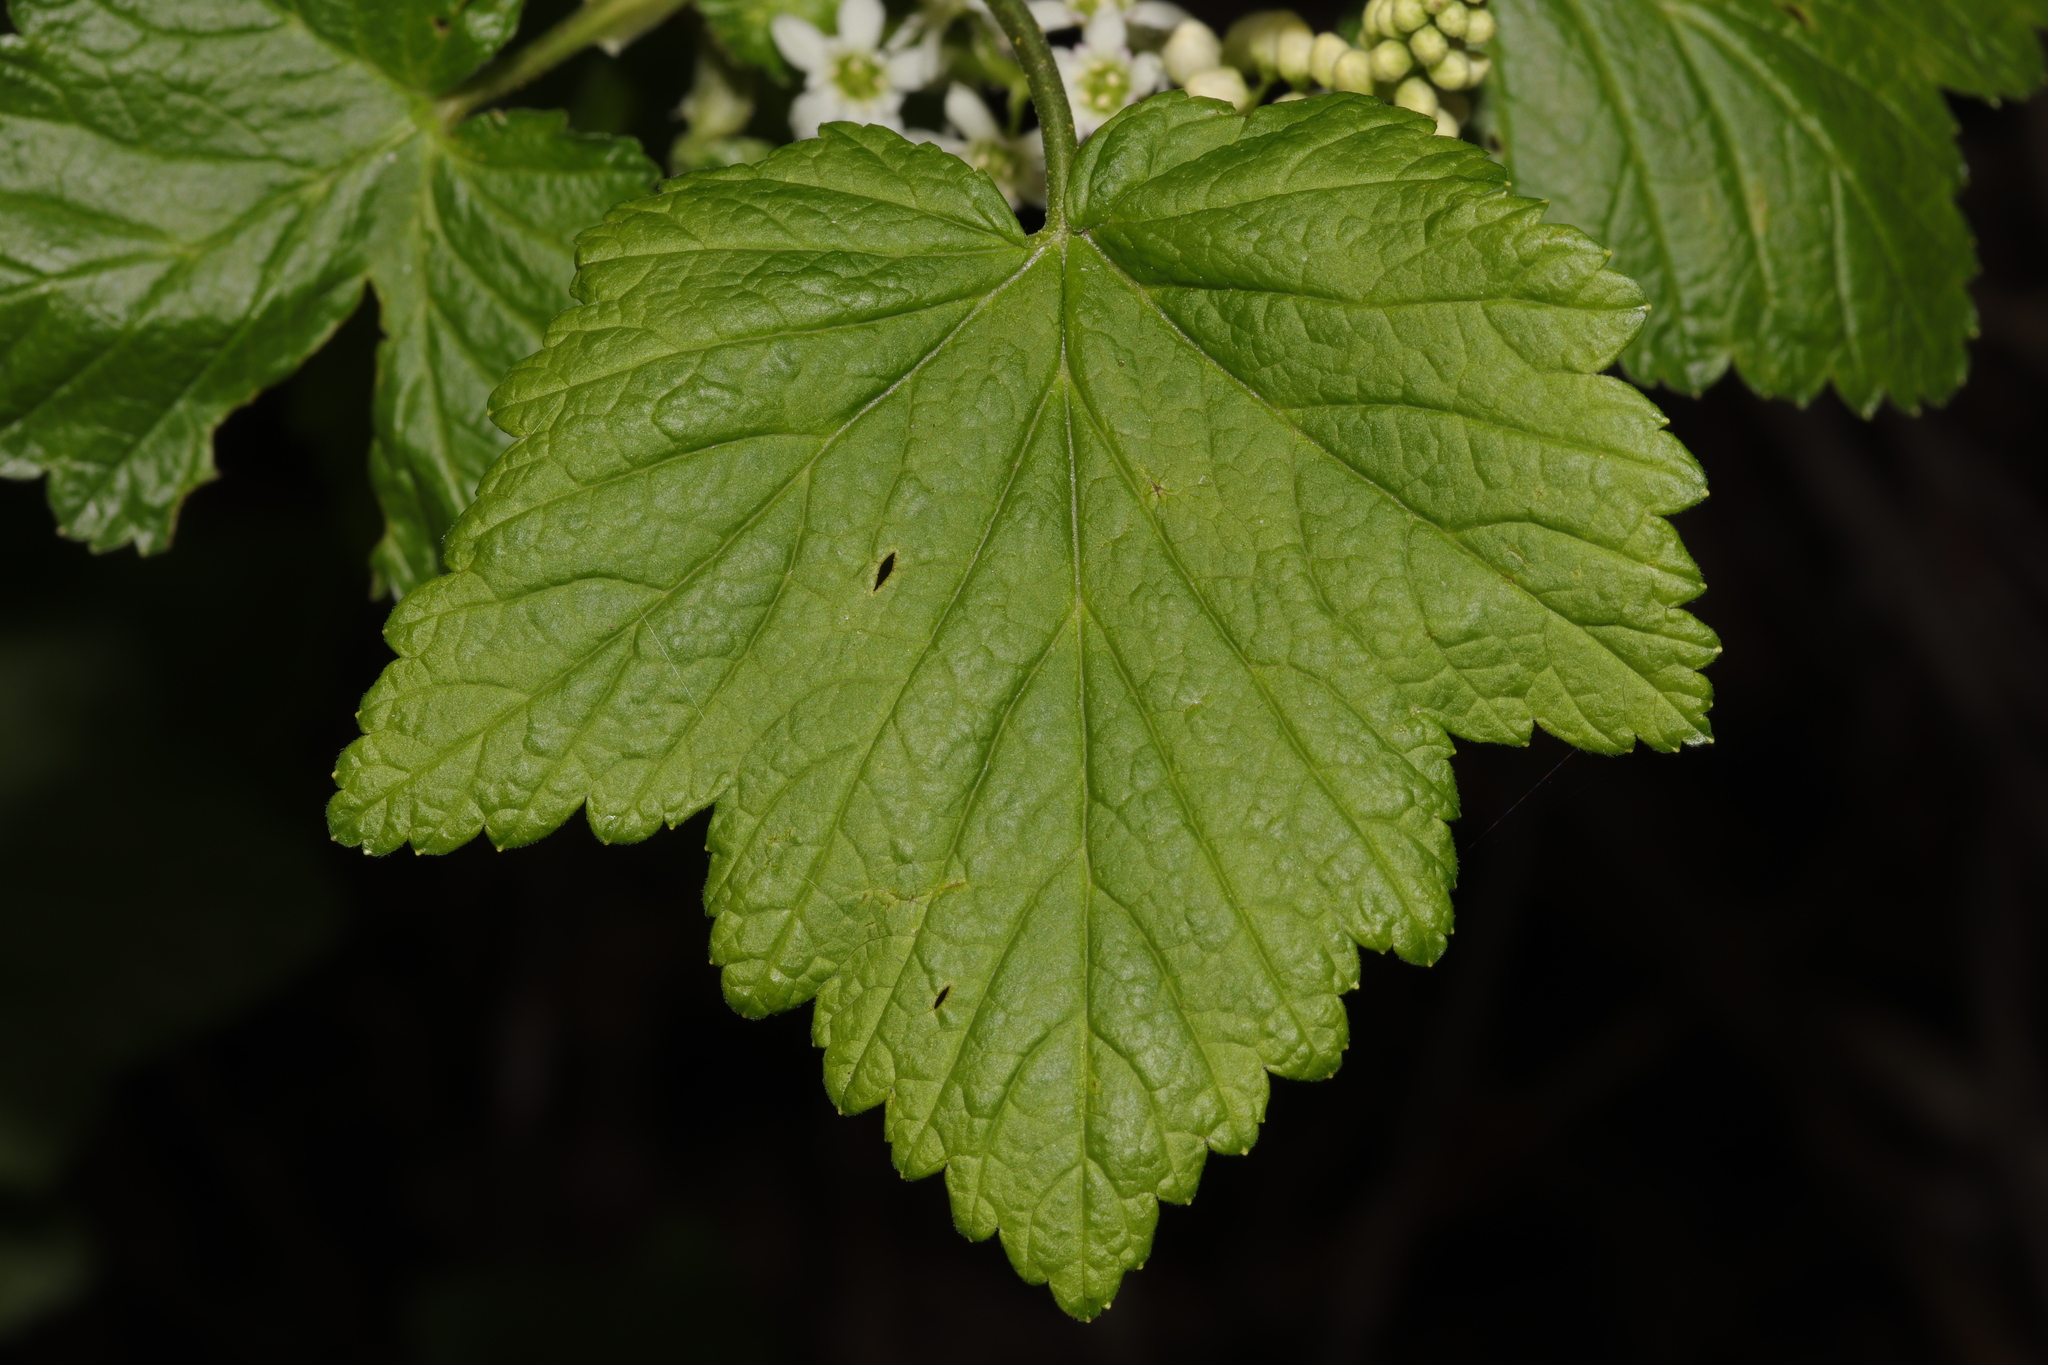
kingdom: Plantae
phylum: Tracheophyta
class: Magnoliopsida
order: Saxifragales
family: Grossulariaceae
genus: Ribes
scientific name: Ribes hudsonianum
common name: Northern black currant
